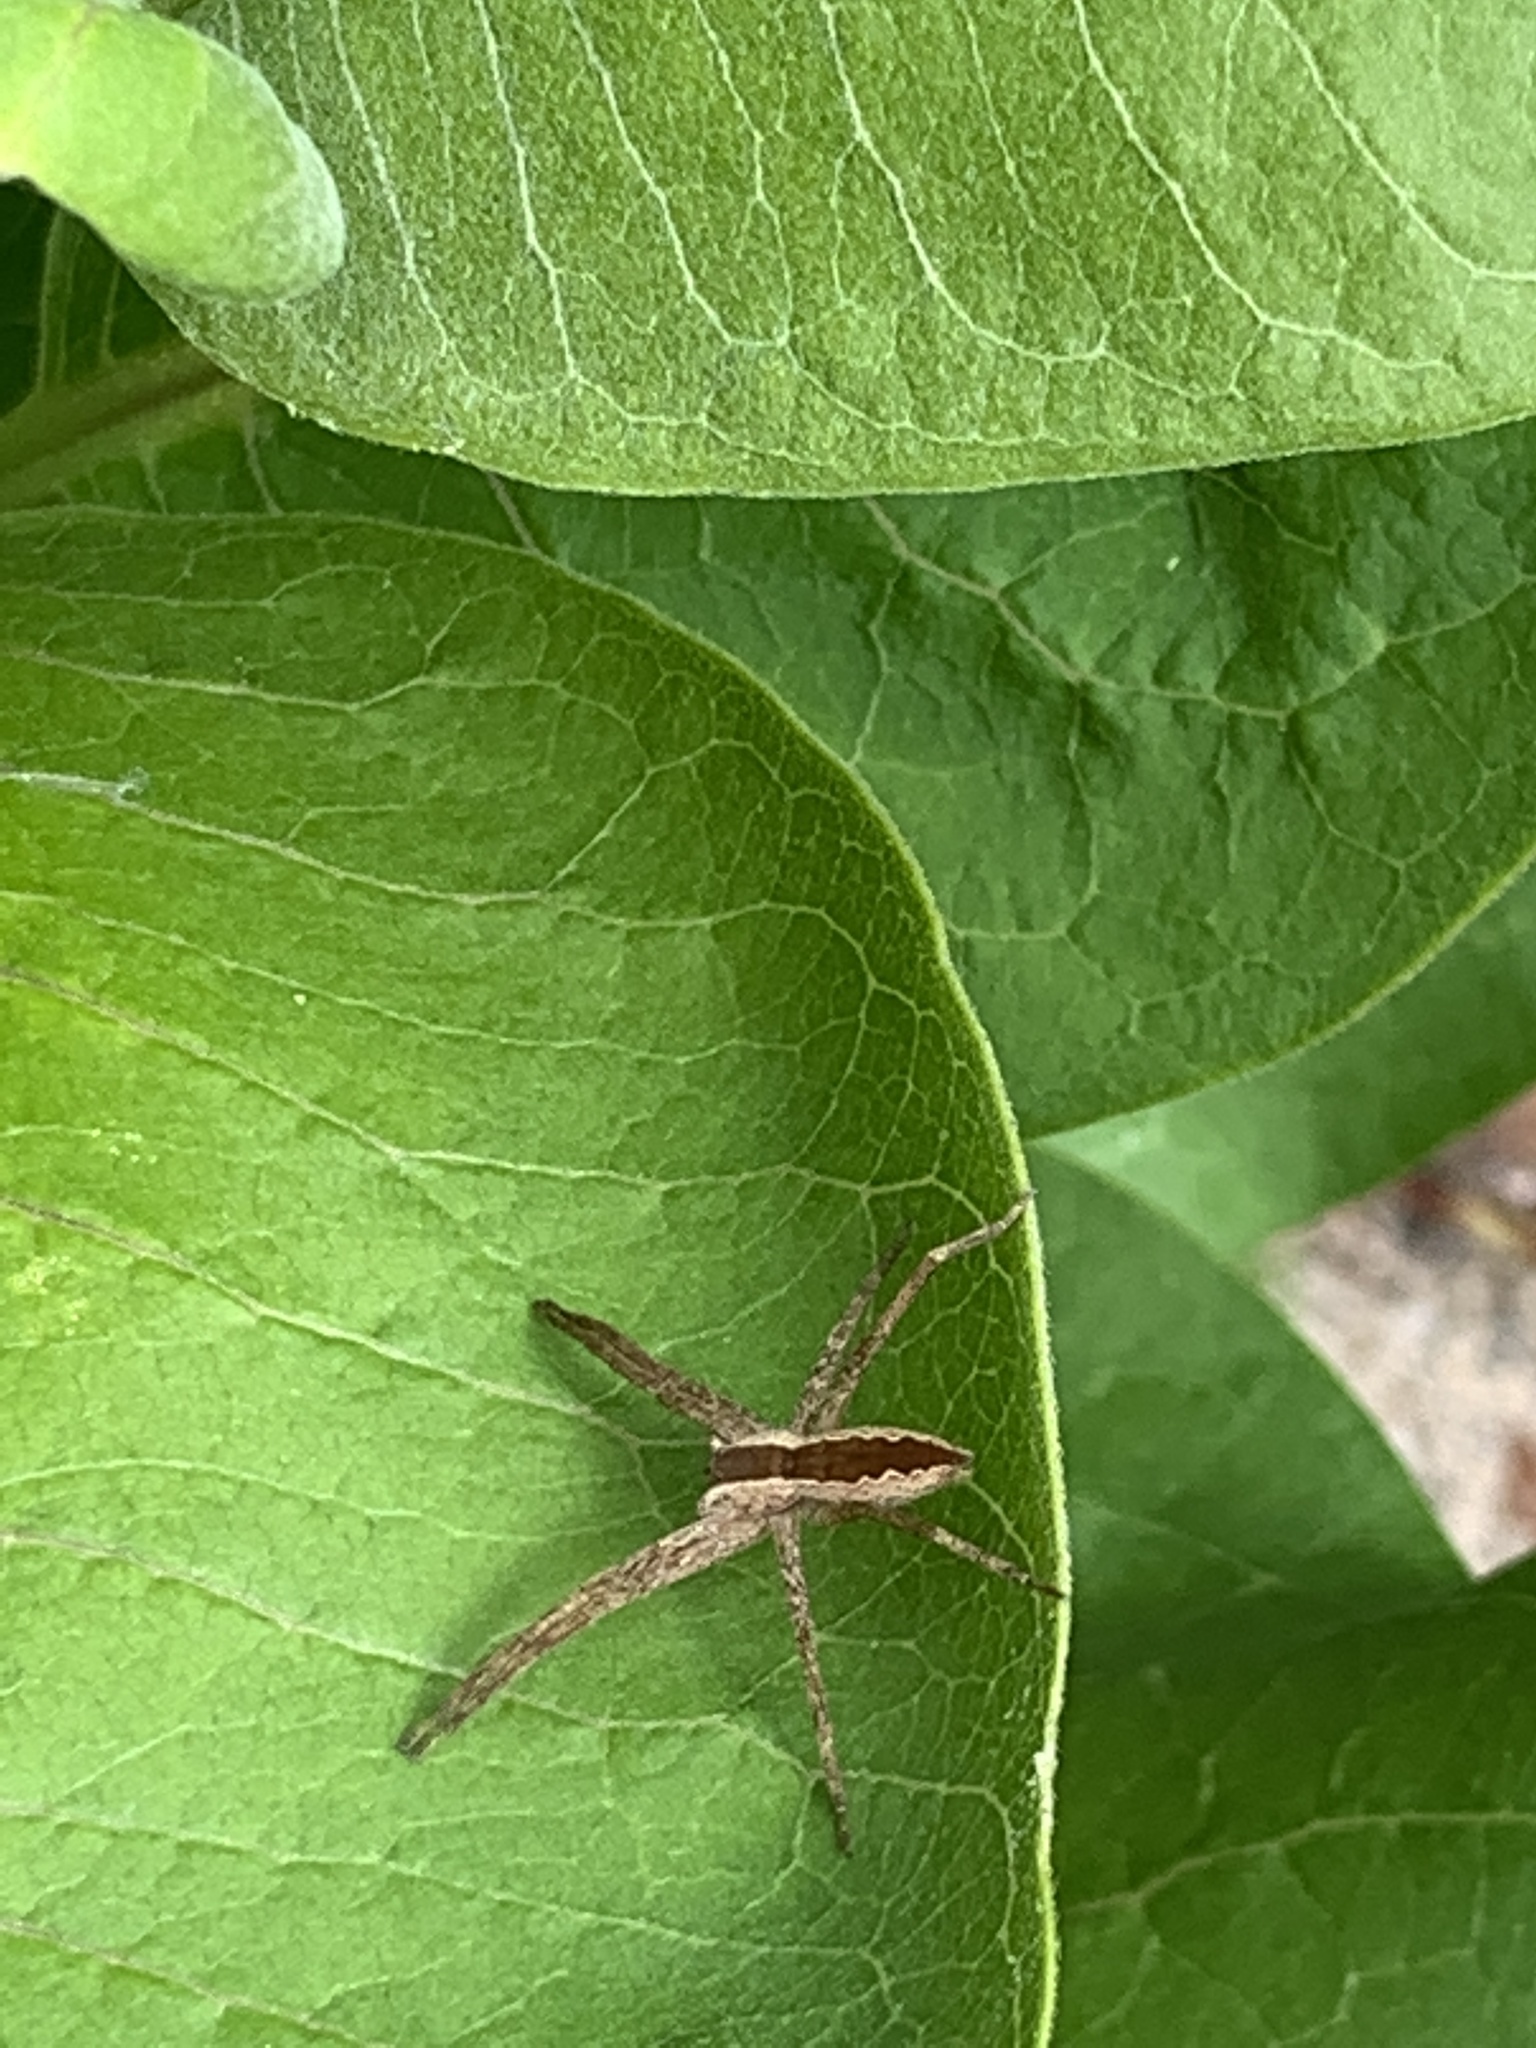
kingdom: Animalia
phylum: Arthropoda
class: Arachnida
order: Araneae
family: Pisauridae
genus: Pisaurina
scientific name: Pisaurina mira
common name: American nursery web spider
